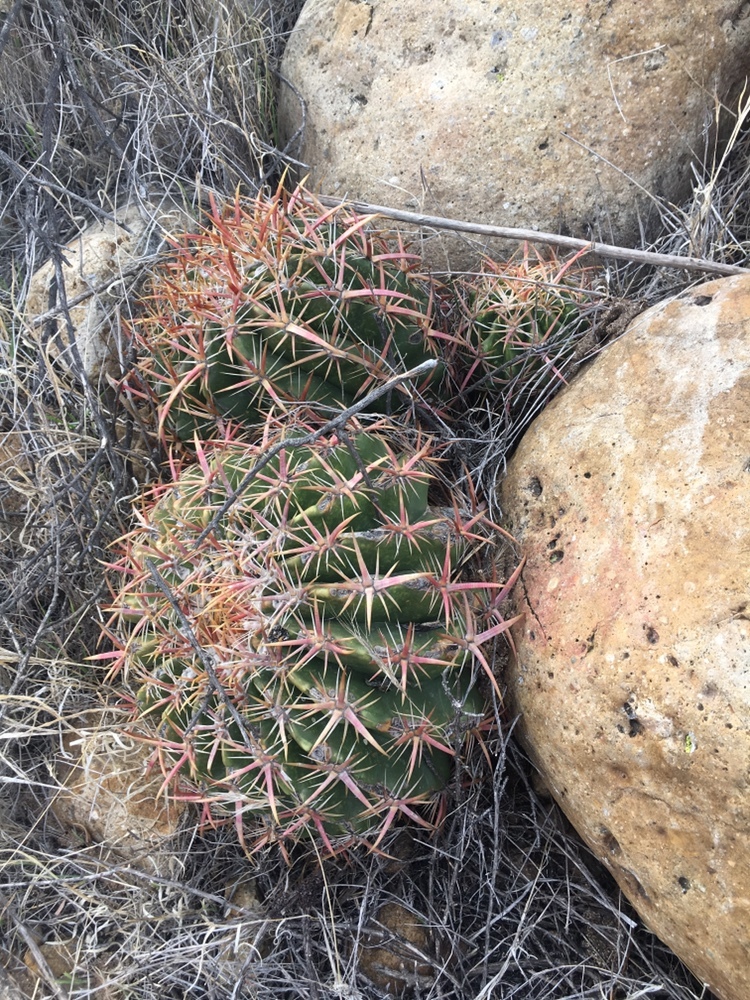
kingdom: Plantae
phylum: Tracheophyta
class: Magnoliopsida
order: Caryophyllales
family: Cactaceae
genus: Ferocactus
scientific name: Ferocactus viridescens
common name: San diego barrel cactus
